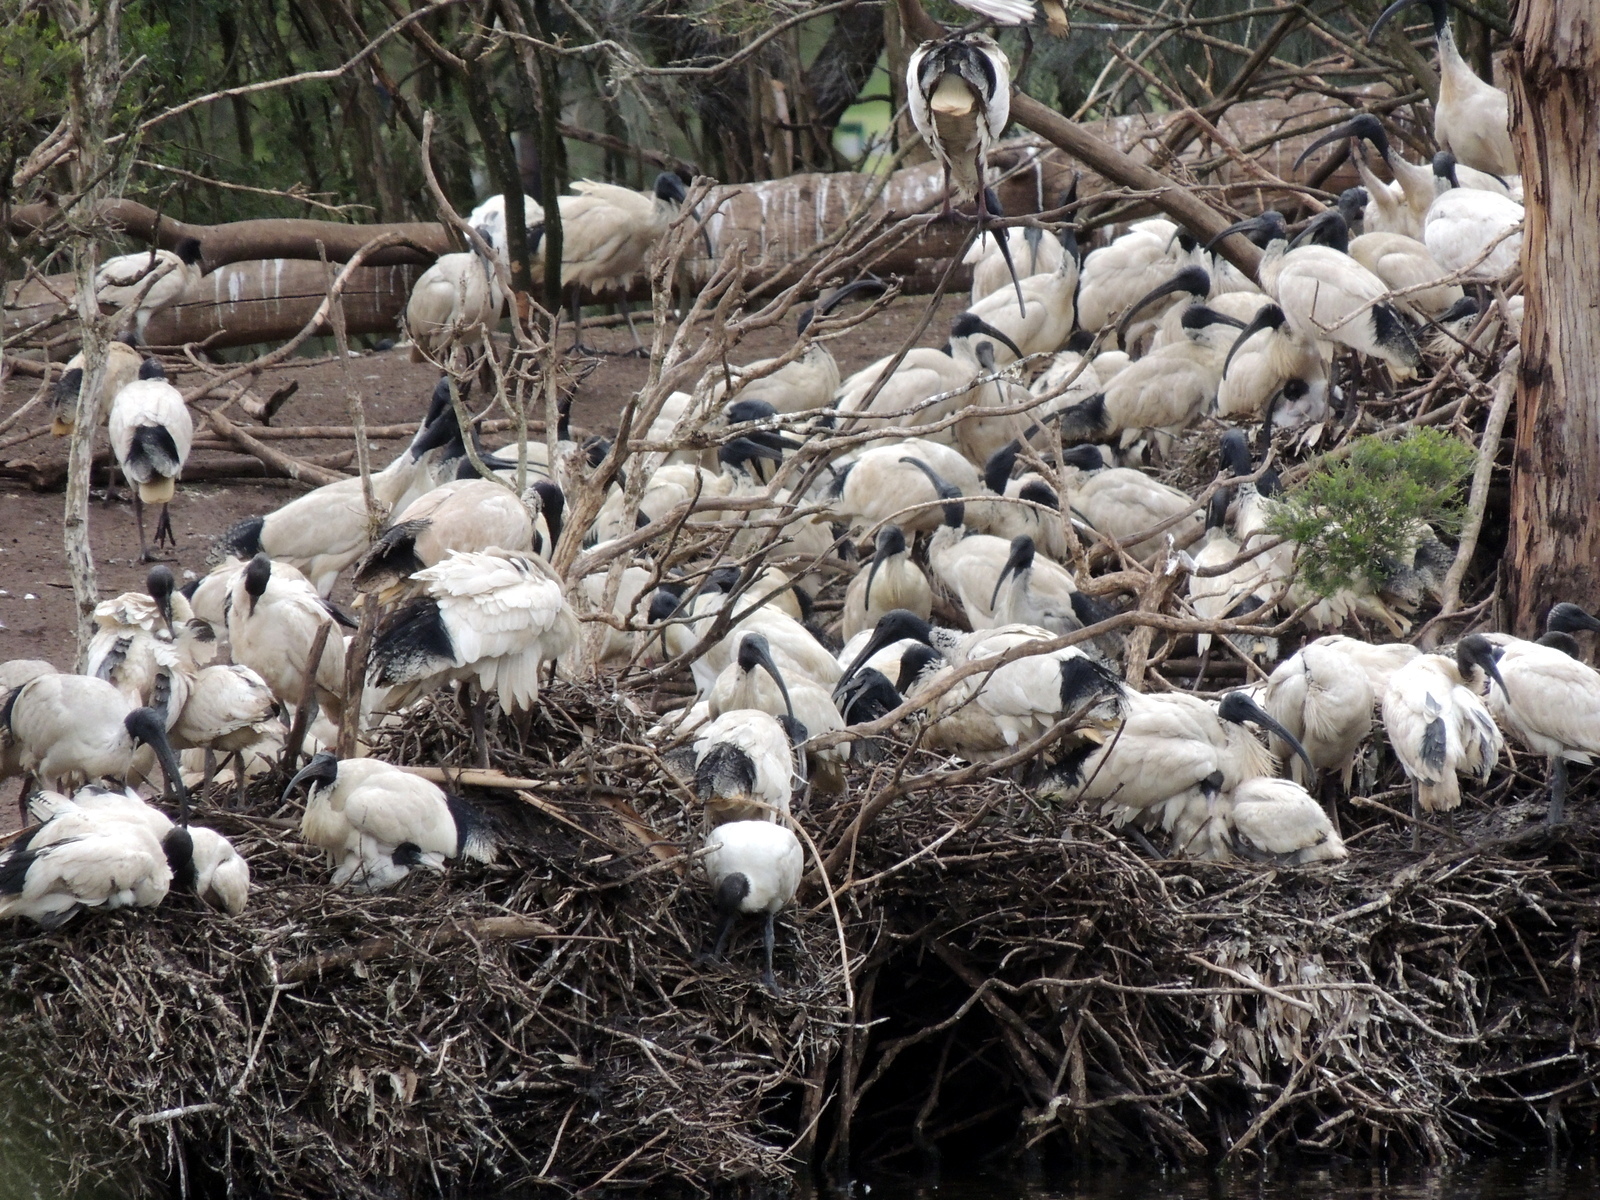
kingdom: Animalia
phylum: Chordata
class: Aves
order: Pelecaniformes
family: Threskiornithidae
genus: Threskiornis
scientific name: Threskiornis molucca
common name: Australian white ibis
